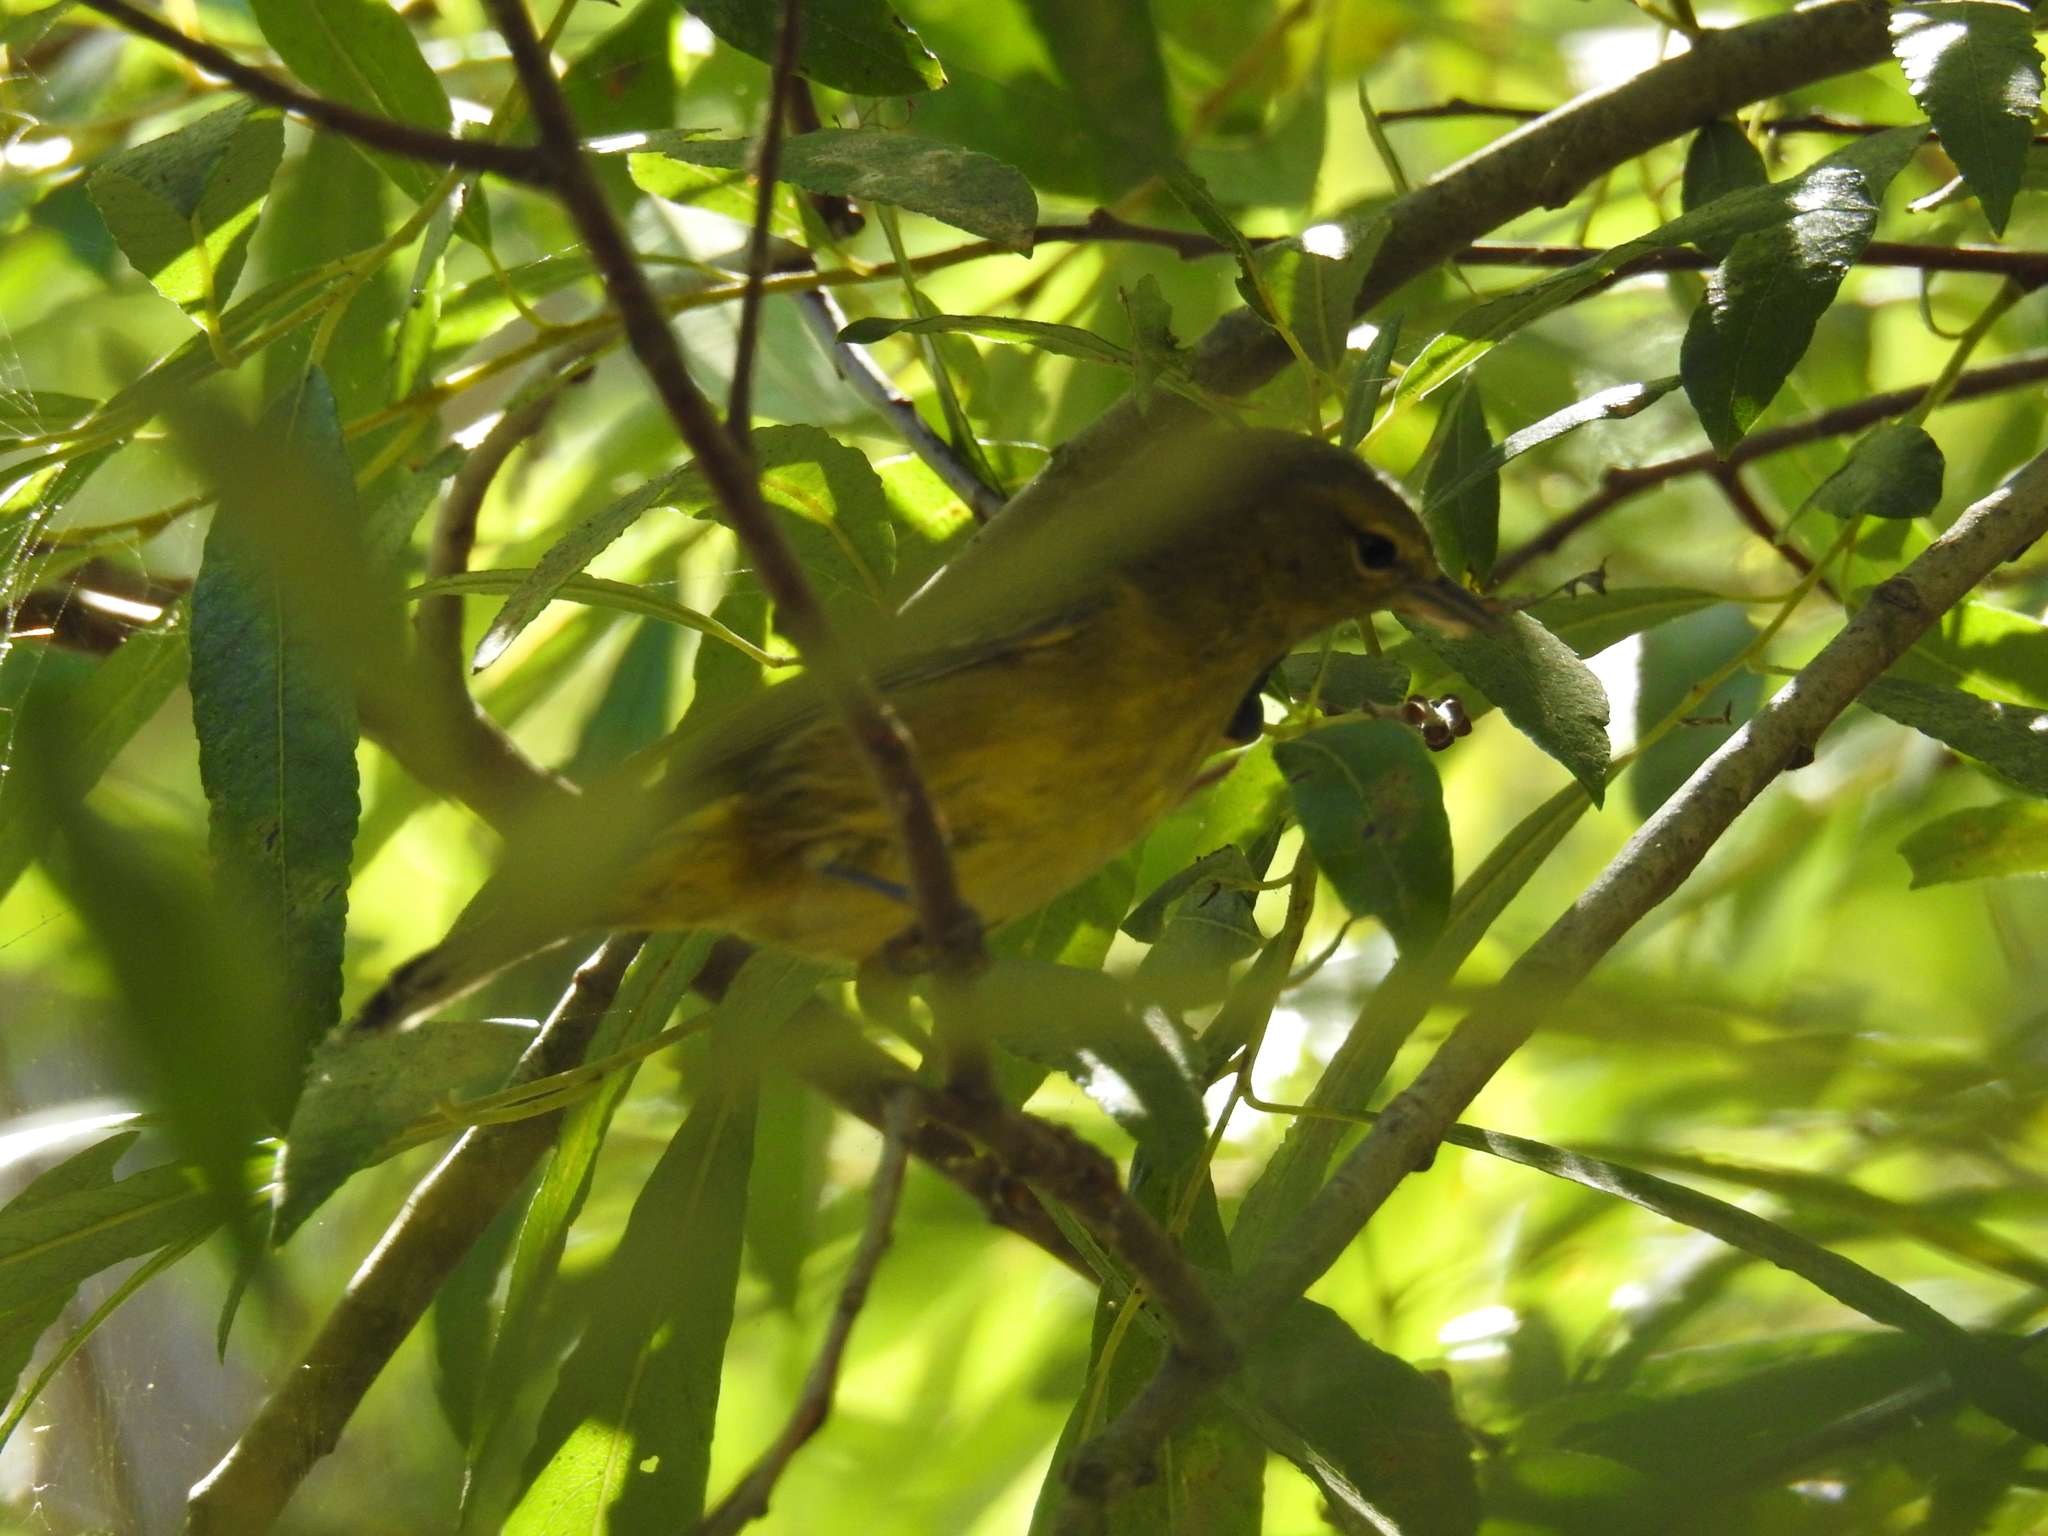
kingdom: Animalia
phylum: Chordata
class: Aves
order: Passeriformes
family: Parulidae
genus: Leiothlypis
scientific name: Leiothlypis celata
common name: Orange-crowned warbler
